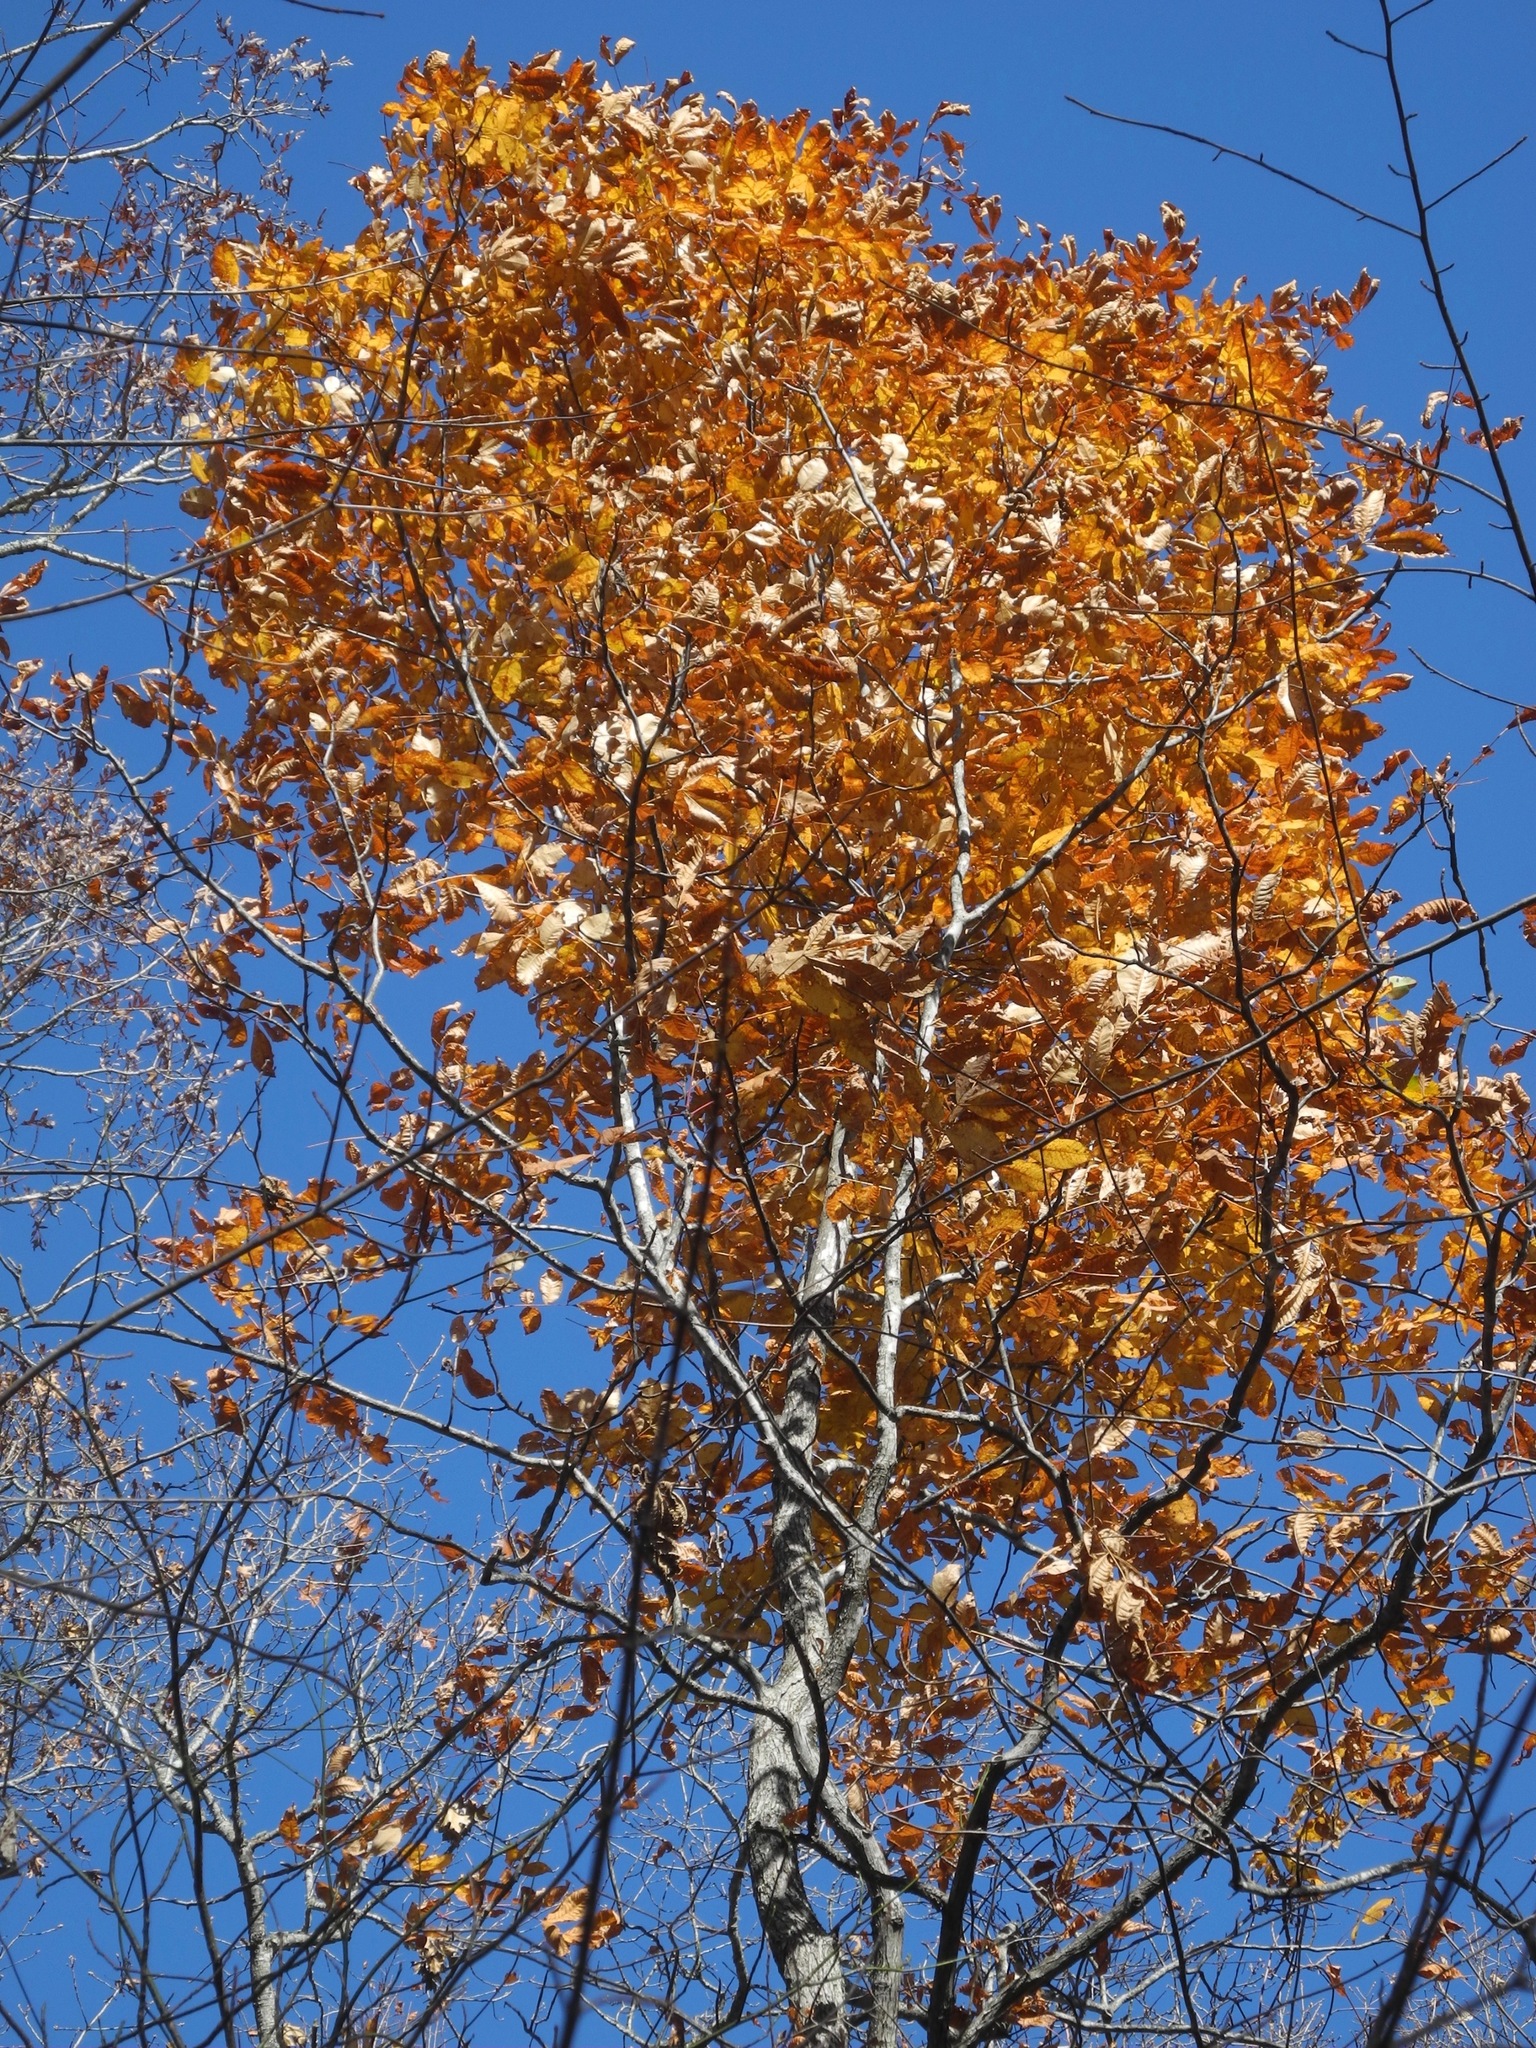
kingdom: Plantae
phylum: Tracheophyta
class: Magnoliopsida
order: Fagales
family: Juglandaceae
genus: Carya
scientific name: Carya glabra
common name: Pignut hickory
